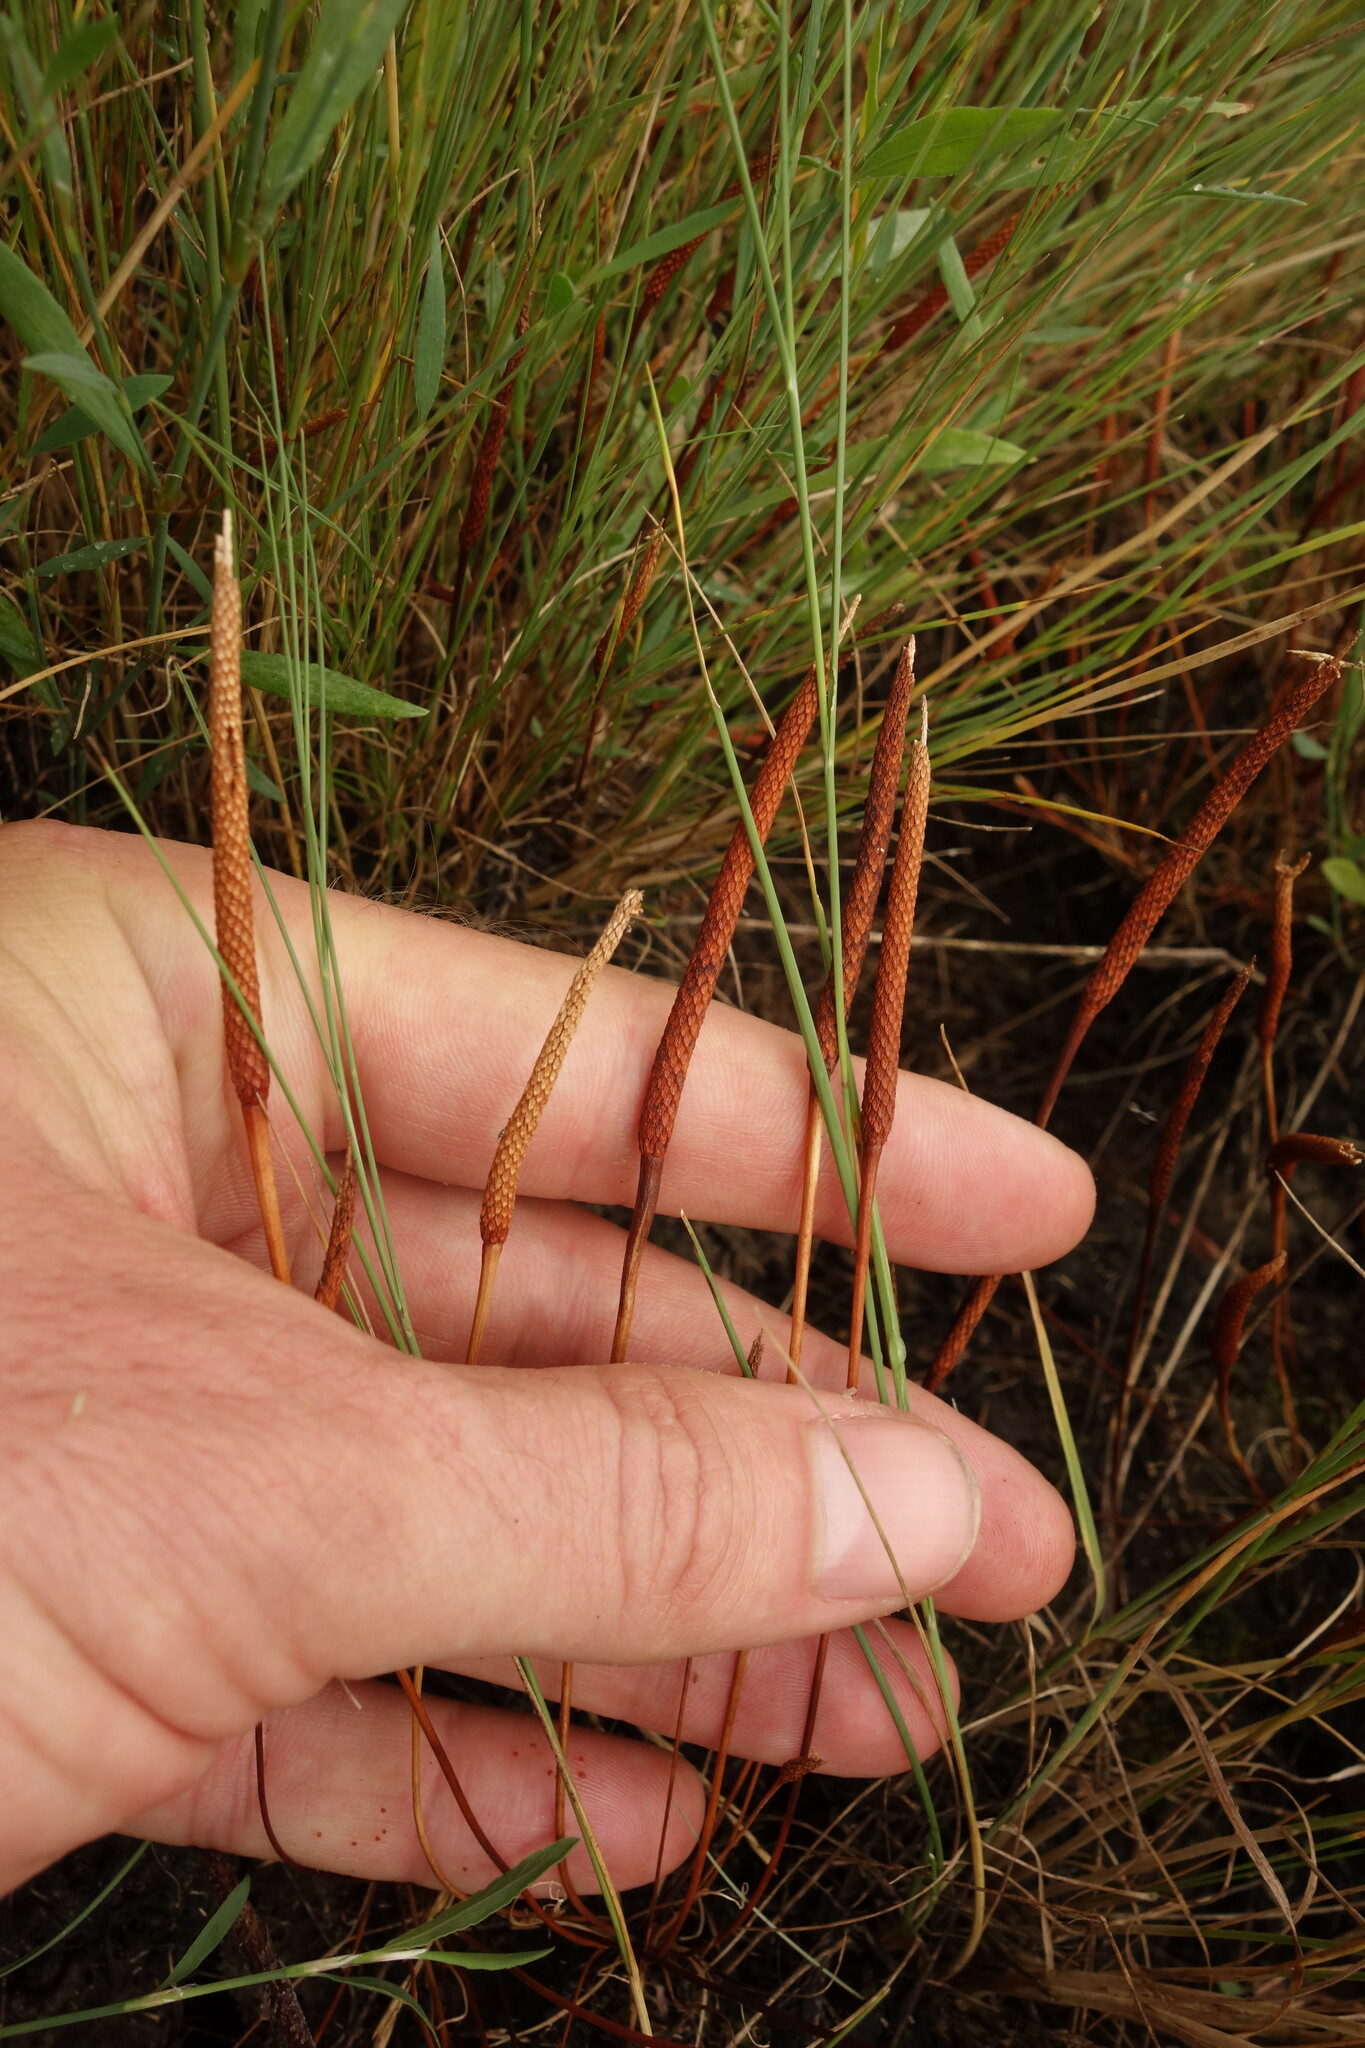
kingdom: Plantae
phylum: Tracheophyta
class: Magnoliopsida
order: Ranunculales
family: Ranunculaceae
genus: Myosurus
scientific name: Myosurus minimus
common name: Mousetail
